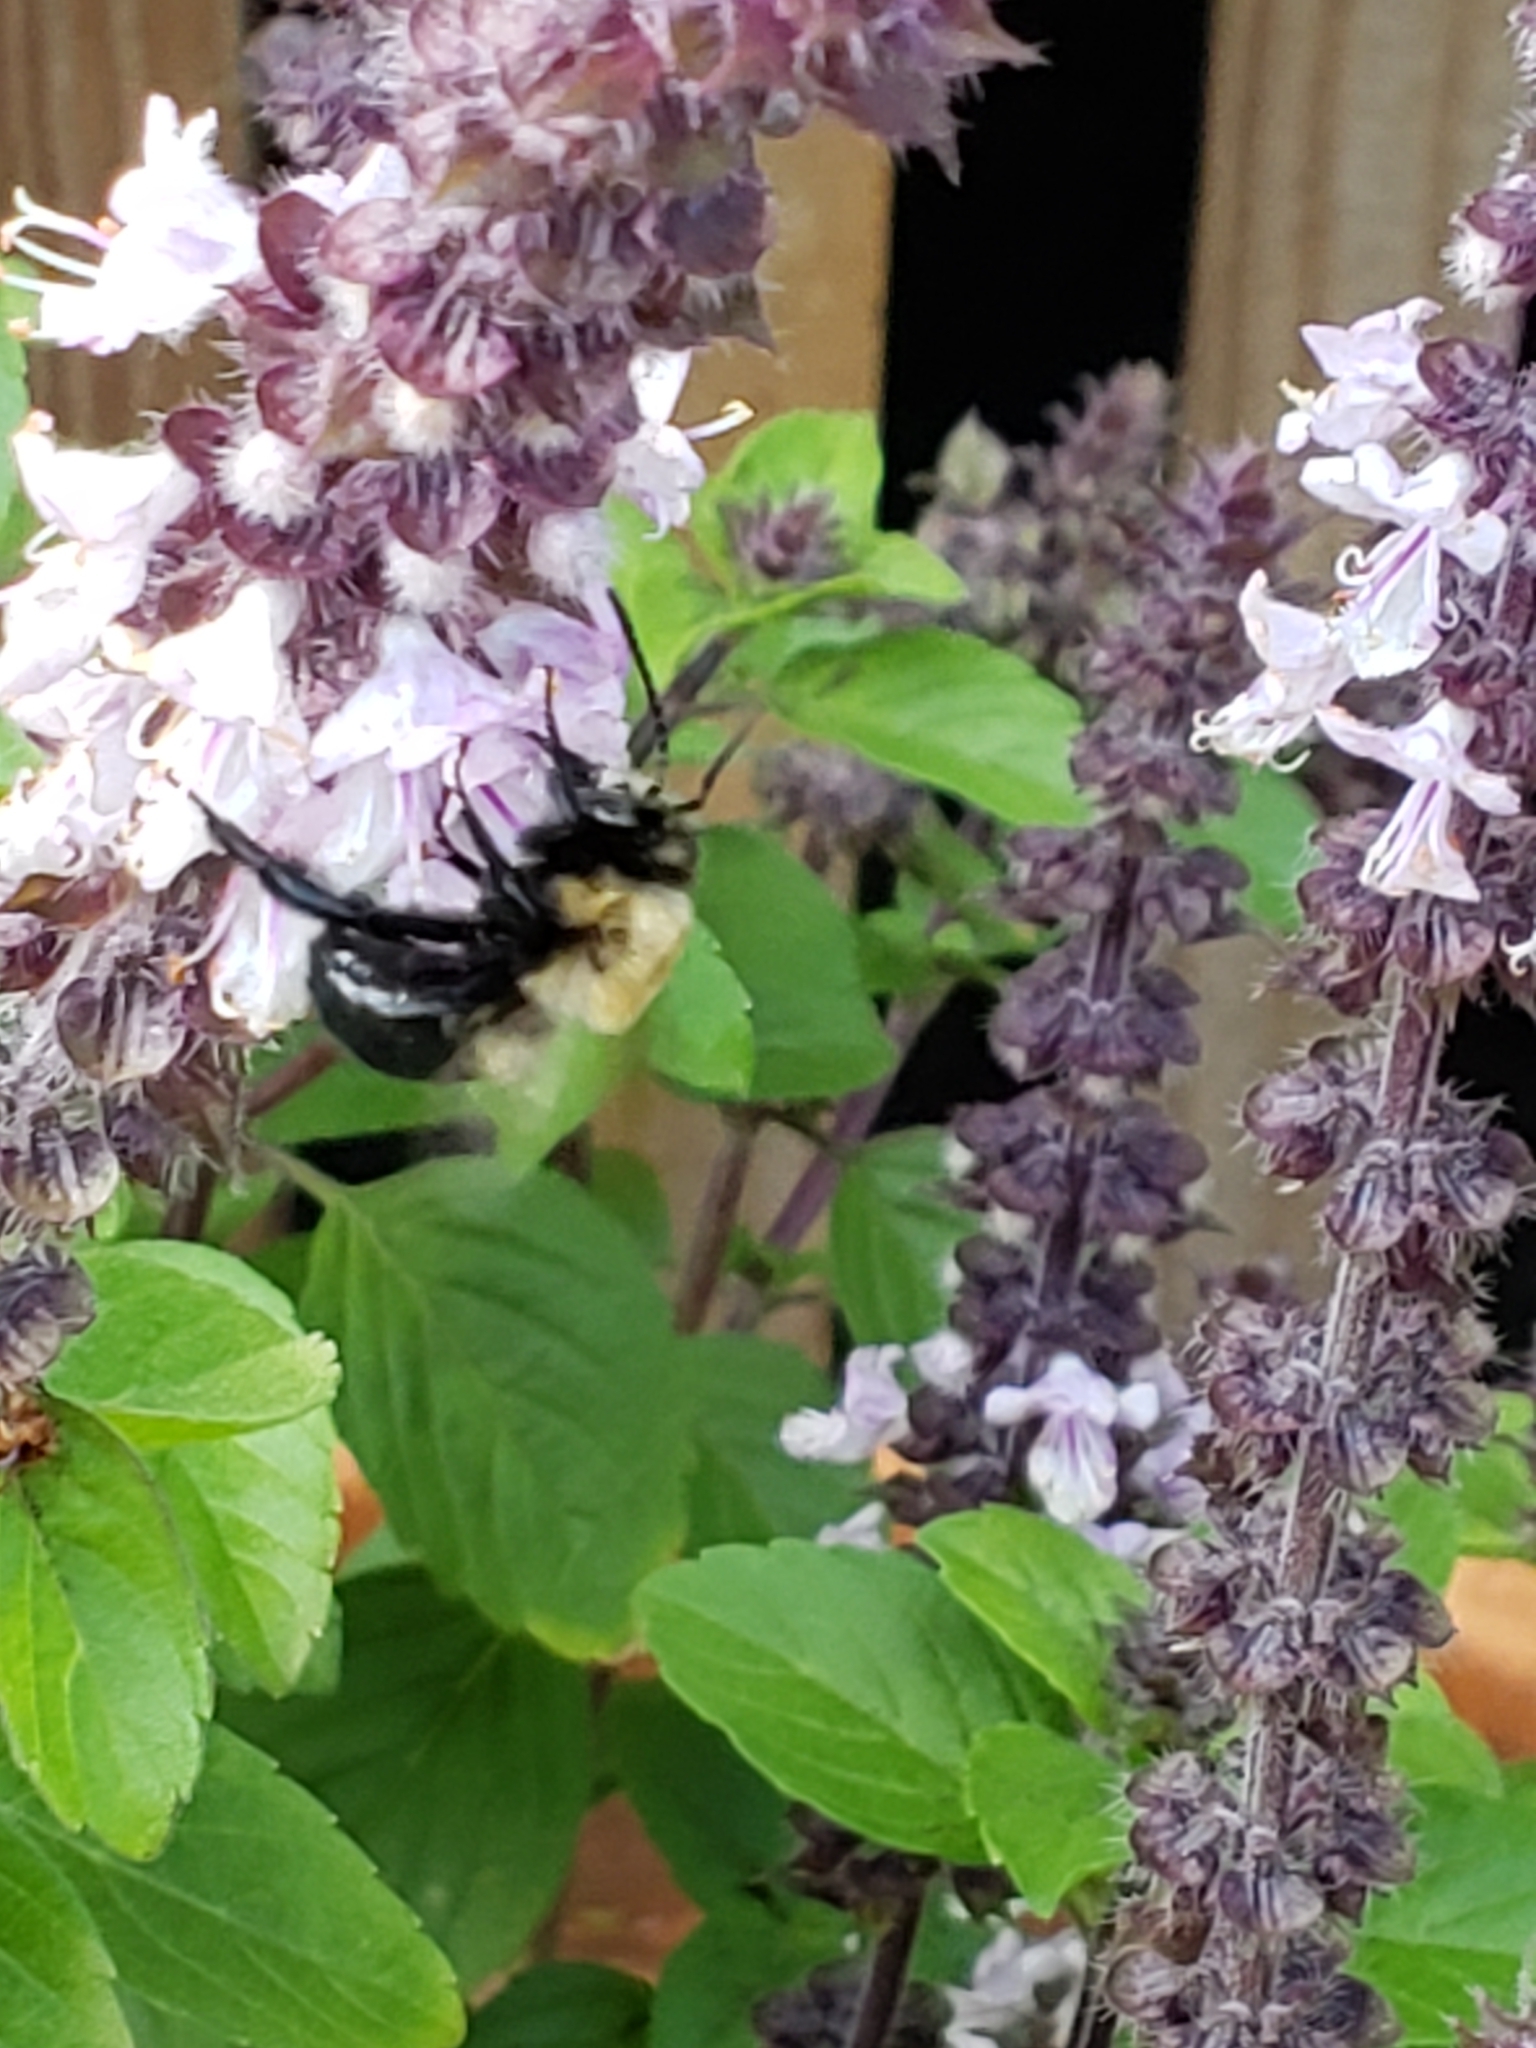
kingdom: Animalia
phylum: Arthropoda
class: Insecta
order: Hymenoptera
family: Apidae
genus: Xylocopa
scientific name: Xylocopa virginica
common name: Carpenter bee
